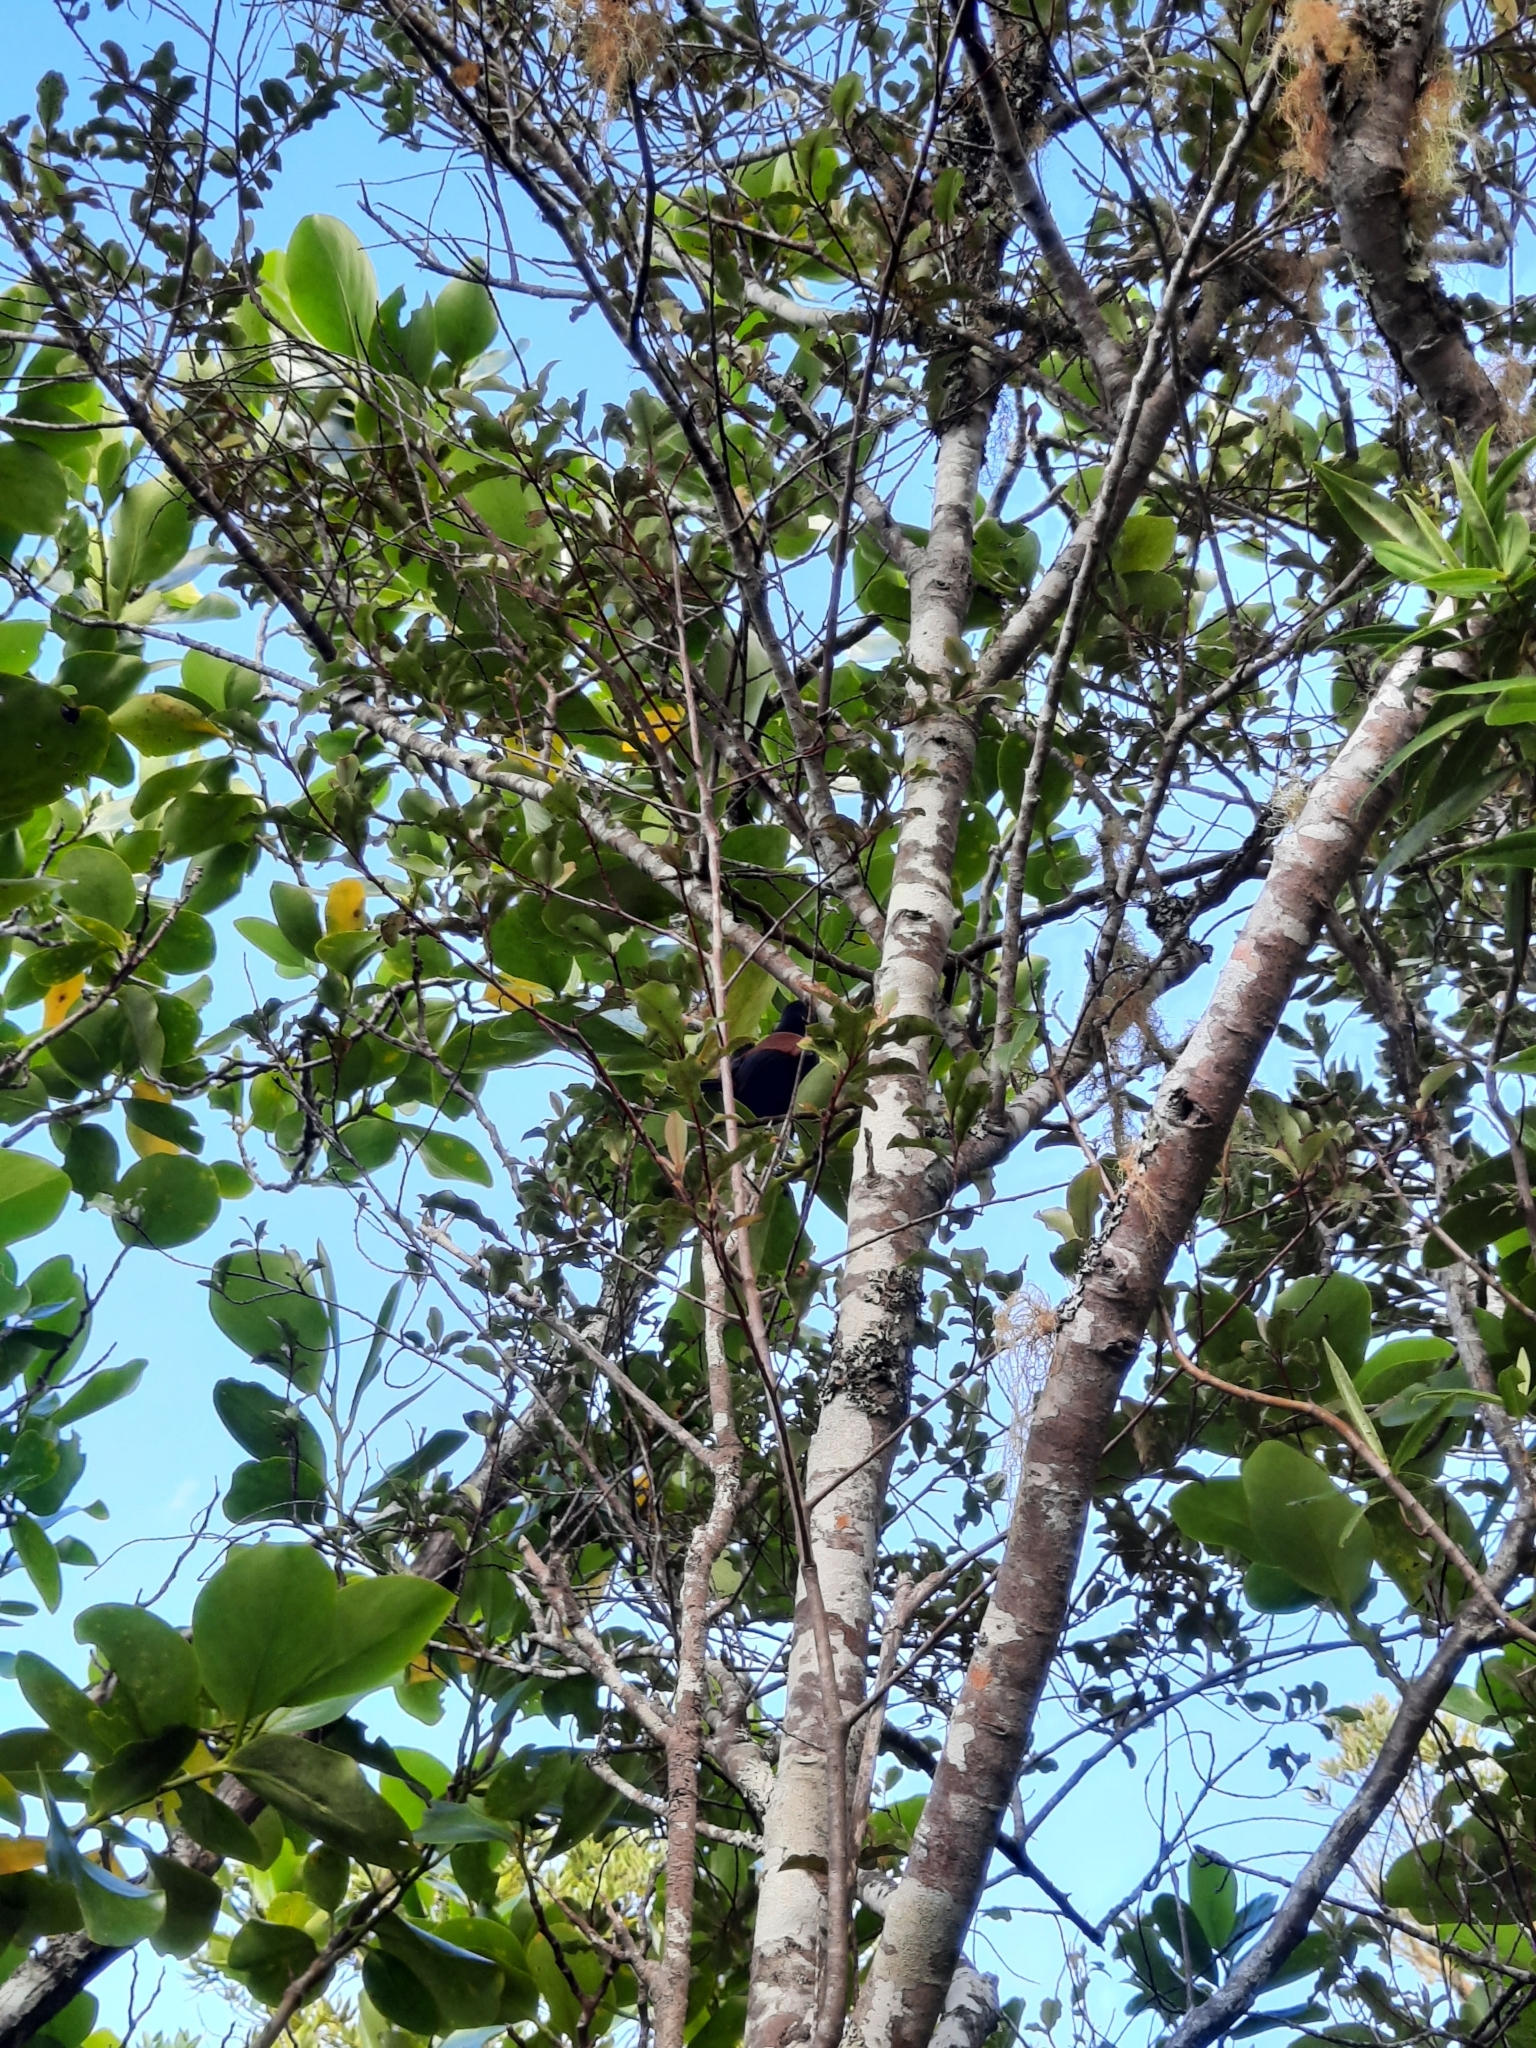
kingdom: Animalia
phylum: Chordata
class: Aves
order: Passeriformes
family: Callaeatidae
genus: Philesturnus
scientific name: Philesturnus carunculatus
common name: South island saddleback
